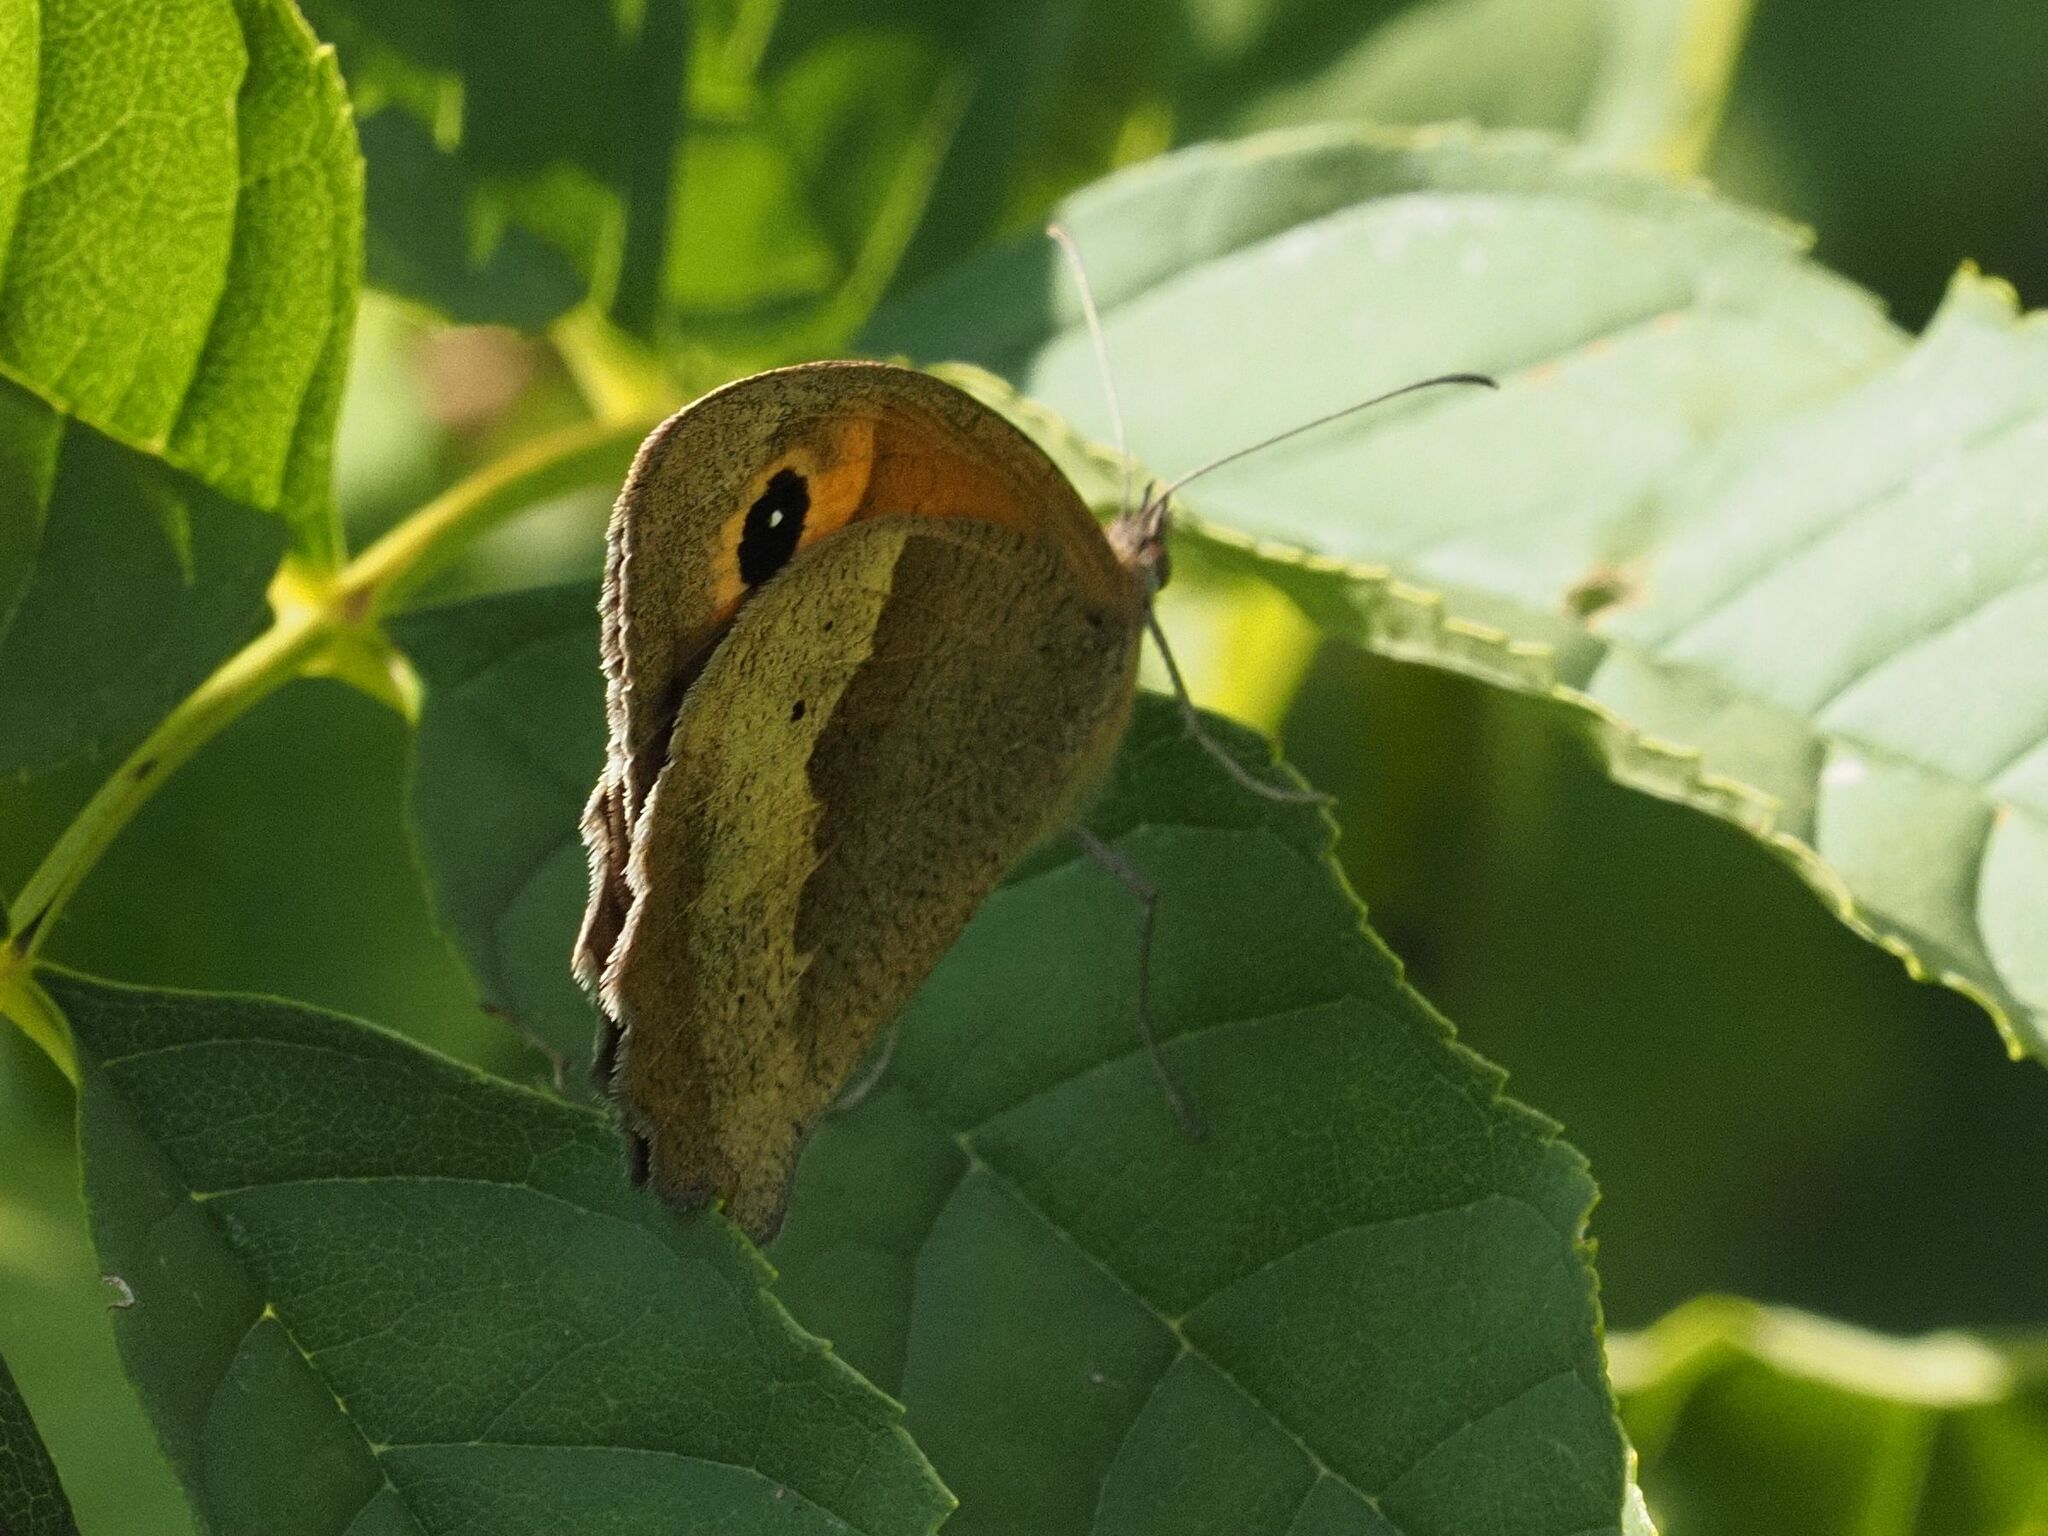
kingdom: Animalia
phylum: Arthropoda
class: Insecta
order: Lepidoptera
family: Nymphalidae
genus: Maniola
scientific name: Maniola jurtina
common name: Meadow brown
